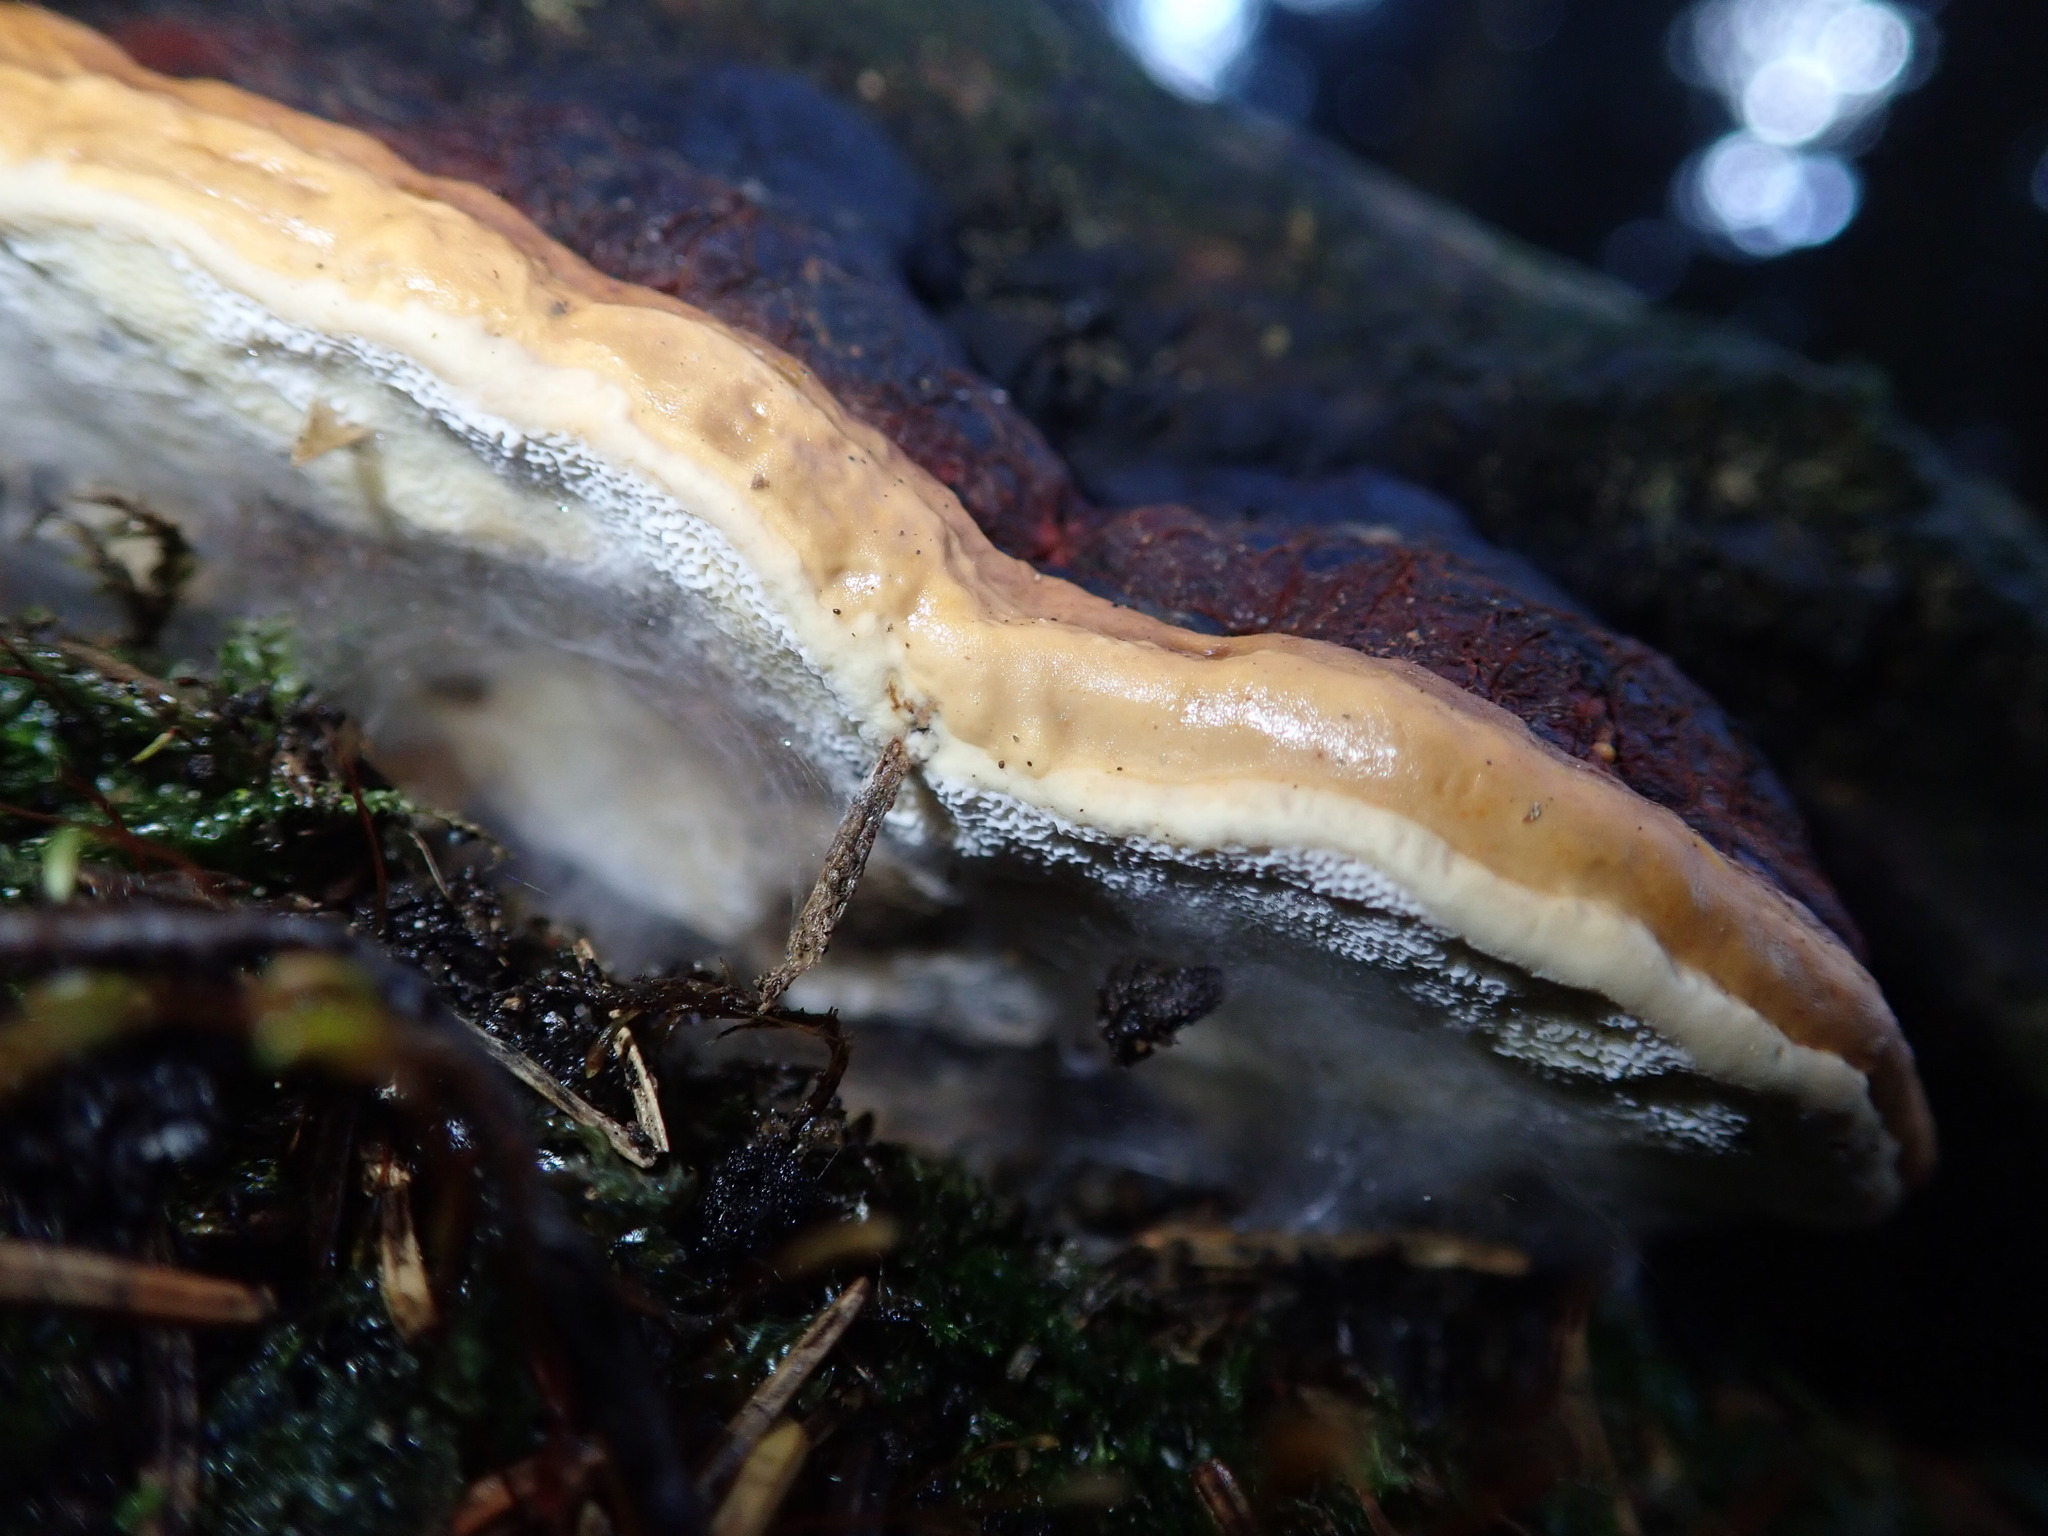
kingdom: Fungi
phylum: Basidiomycota
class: Agaricomycetes
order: Polyporales
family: Fomitopsidaceae
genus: Fomitopsis
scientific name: Fomitopsis pinicola
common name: Red-belted bracket
